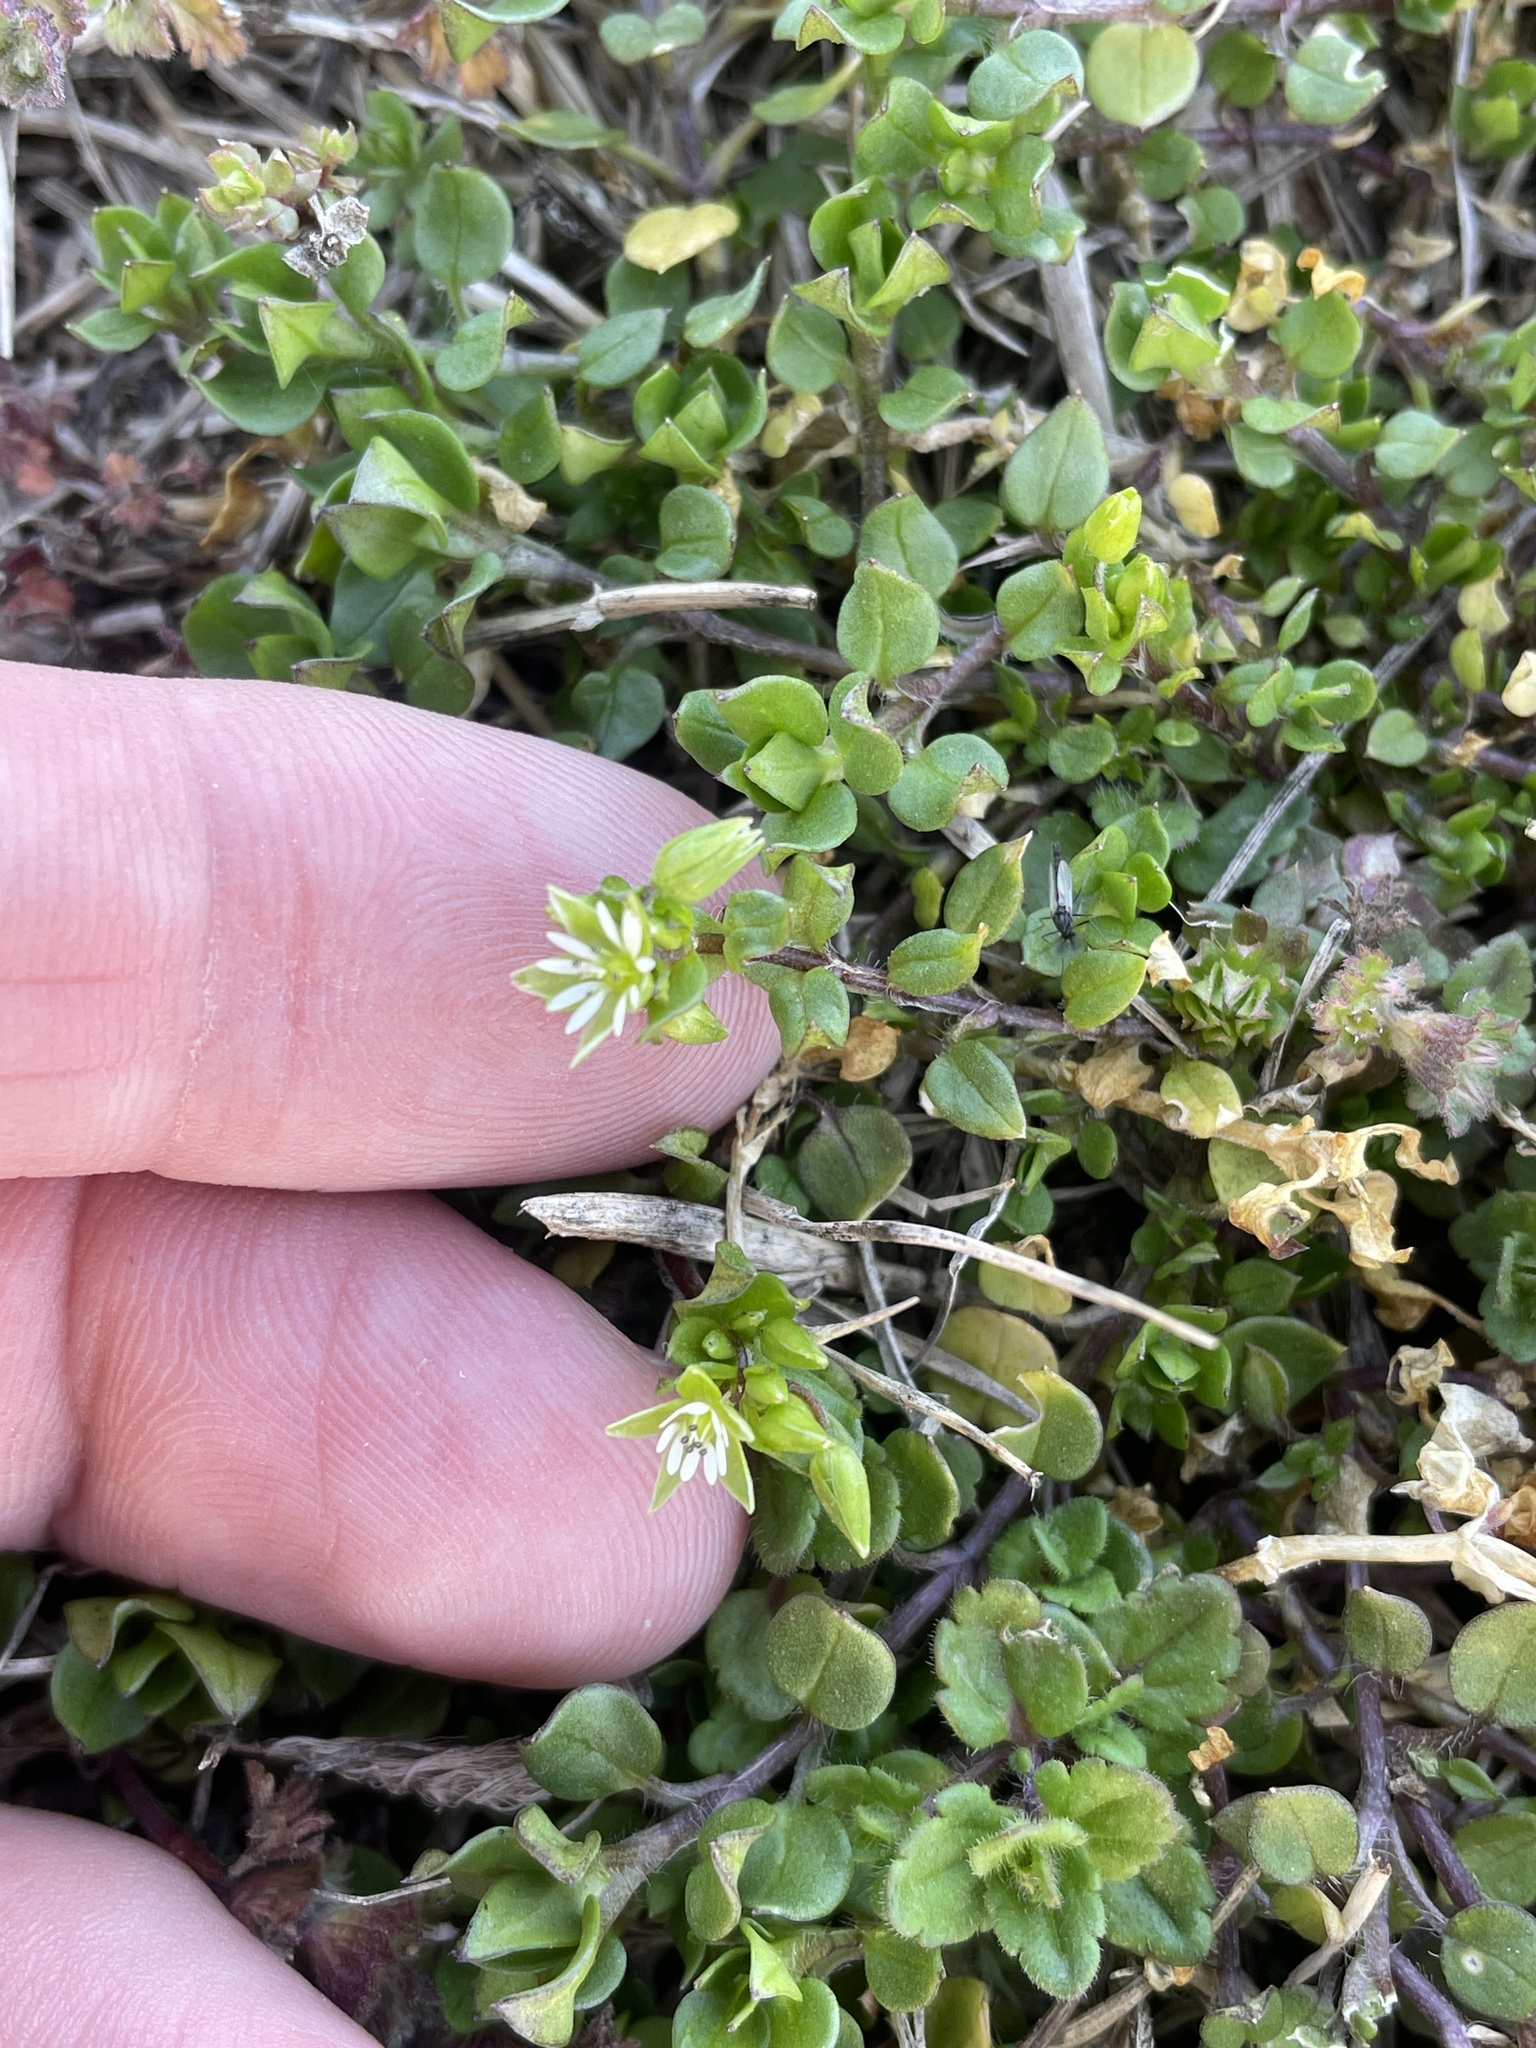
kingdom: Plantae
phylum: Tracheophyta
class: Magnoliopsida
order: Caryophyllales
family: Caryophyllaceae
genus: Stellaria
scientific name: Stellaria media
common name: Common chickweed
